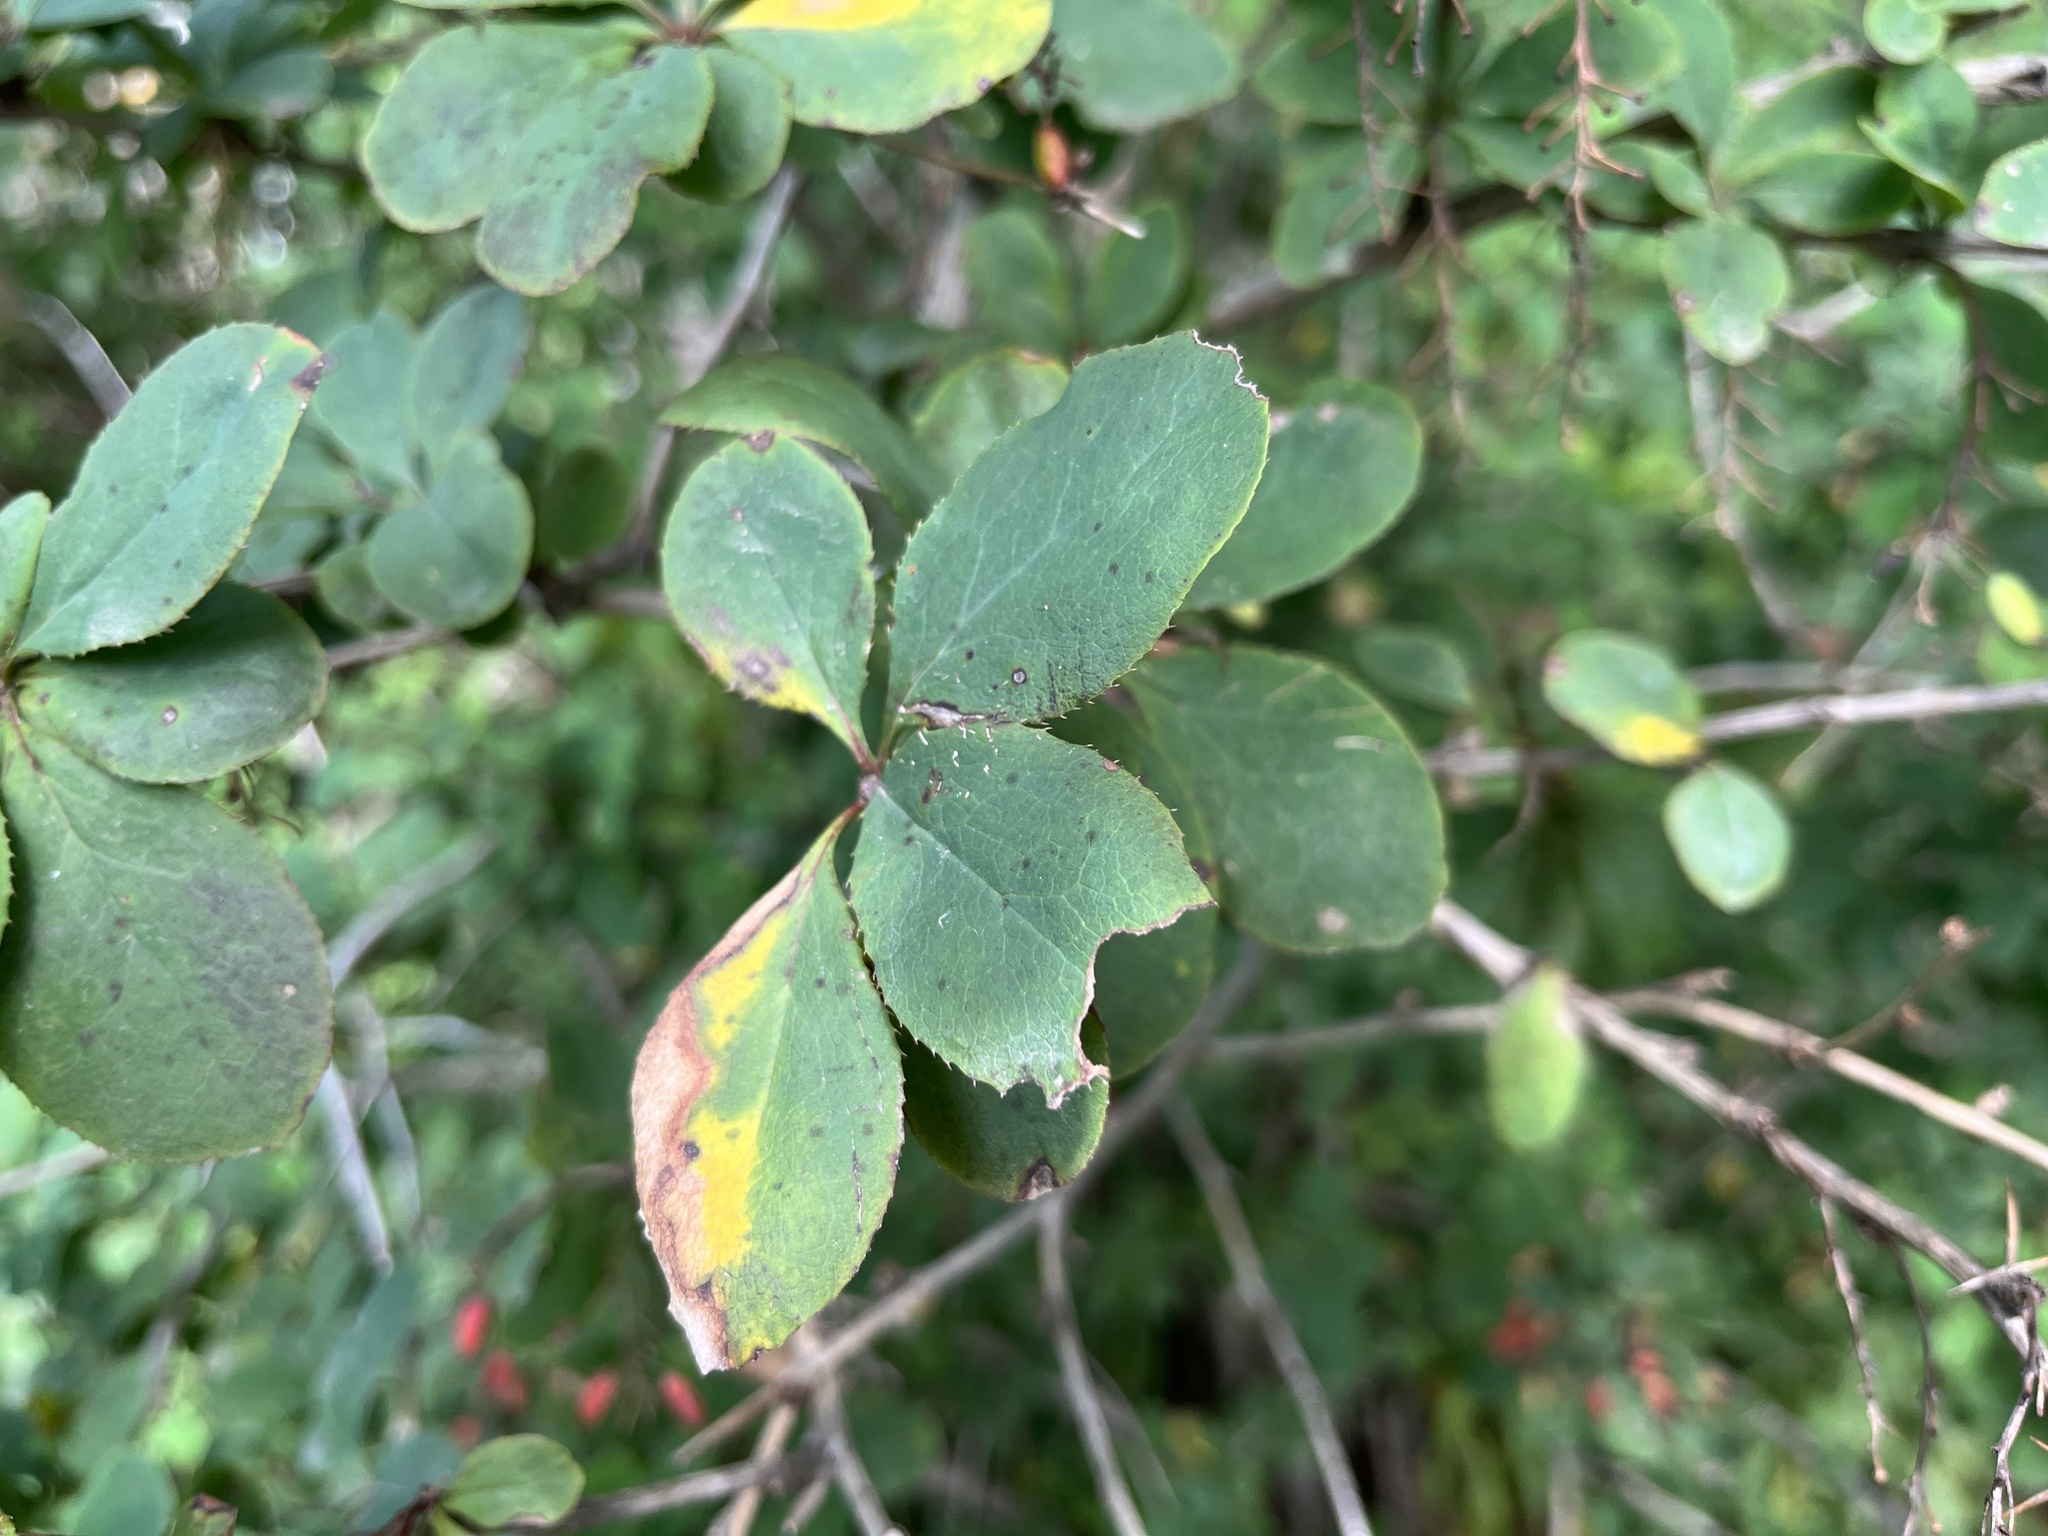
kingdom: Plantae
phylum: Tracheophyta
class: Magnoliopsida
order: Ranunculales
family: Berberidaceae
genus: Berberis
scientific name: Berberis vulgaris
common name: Barberry
